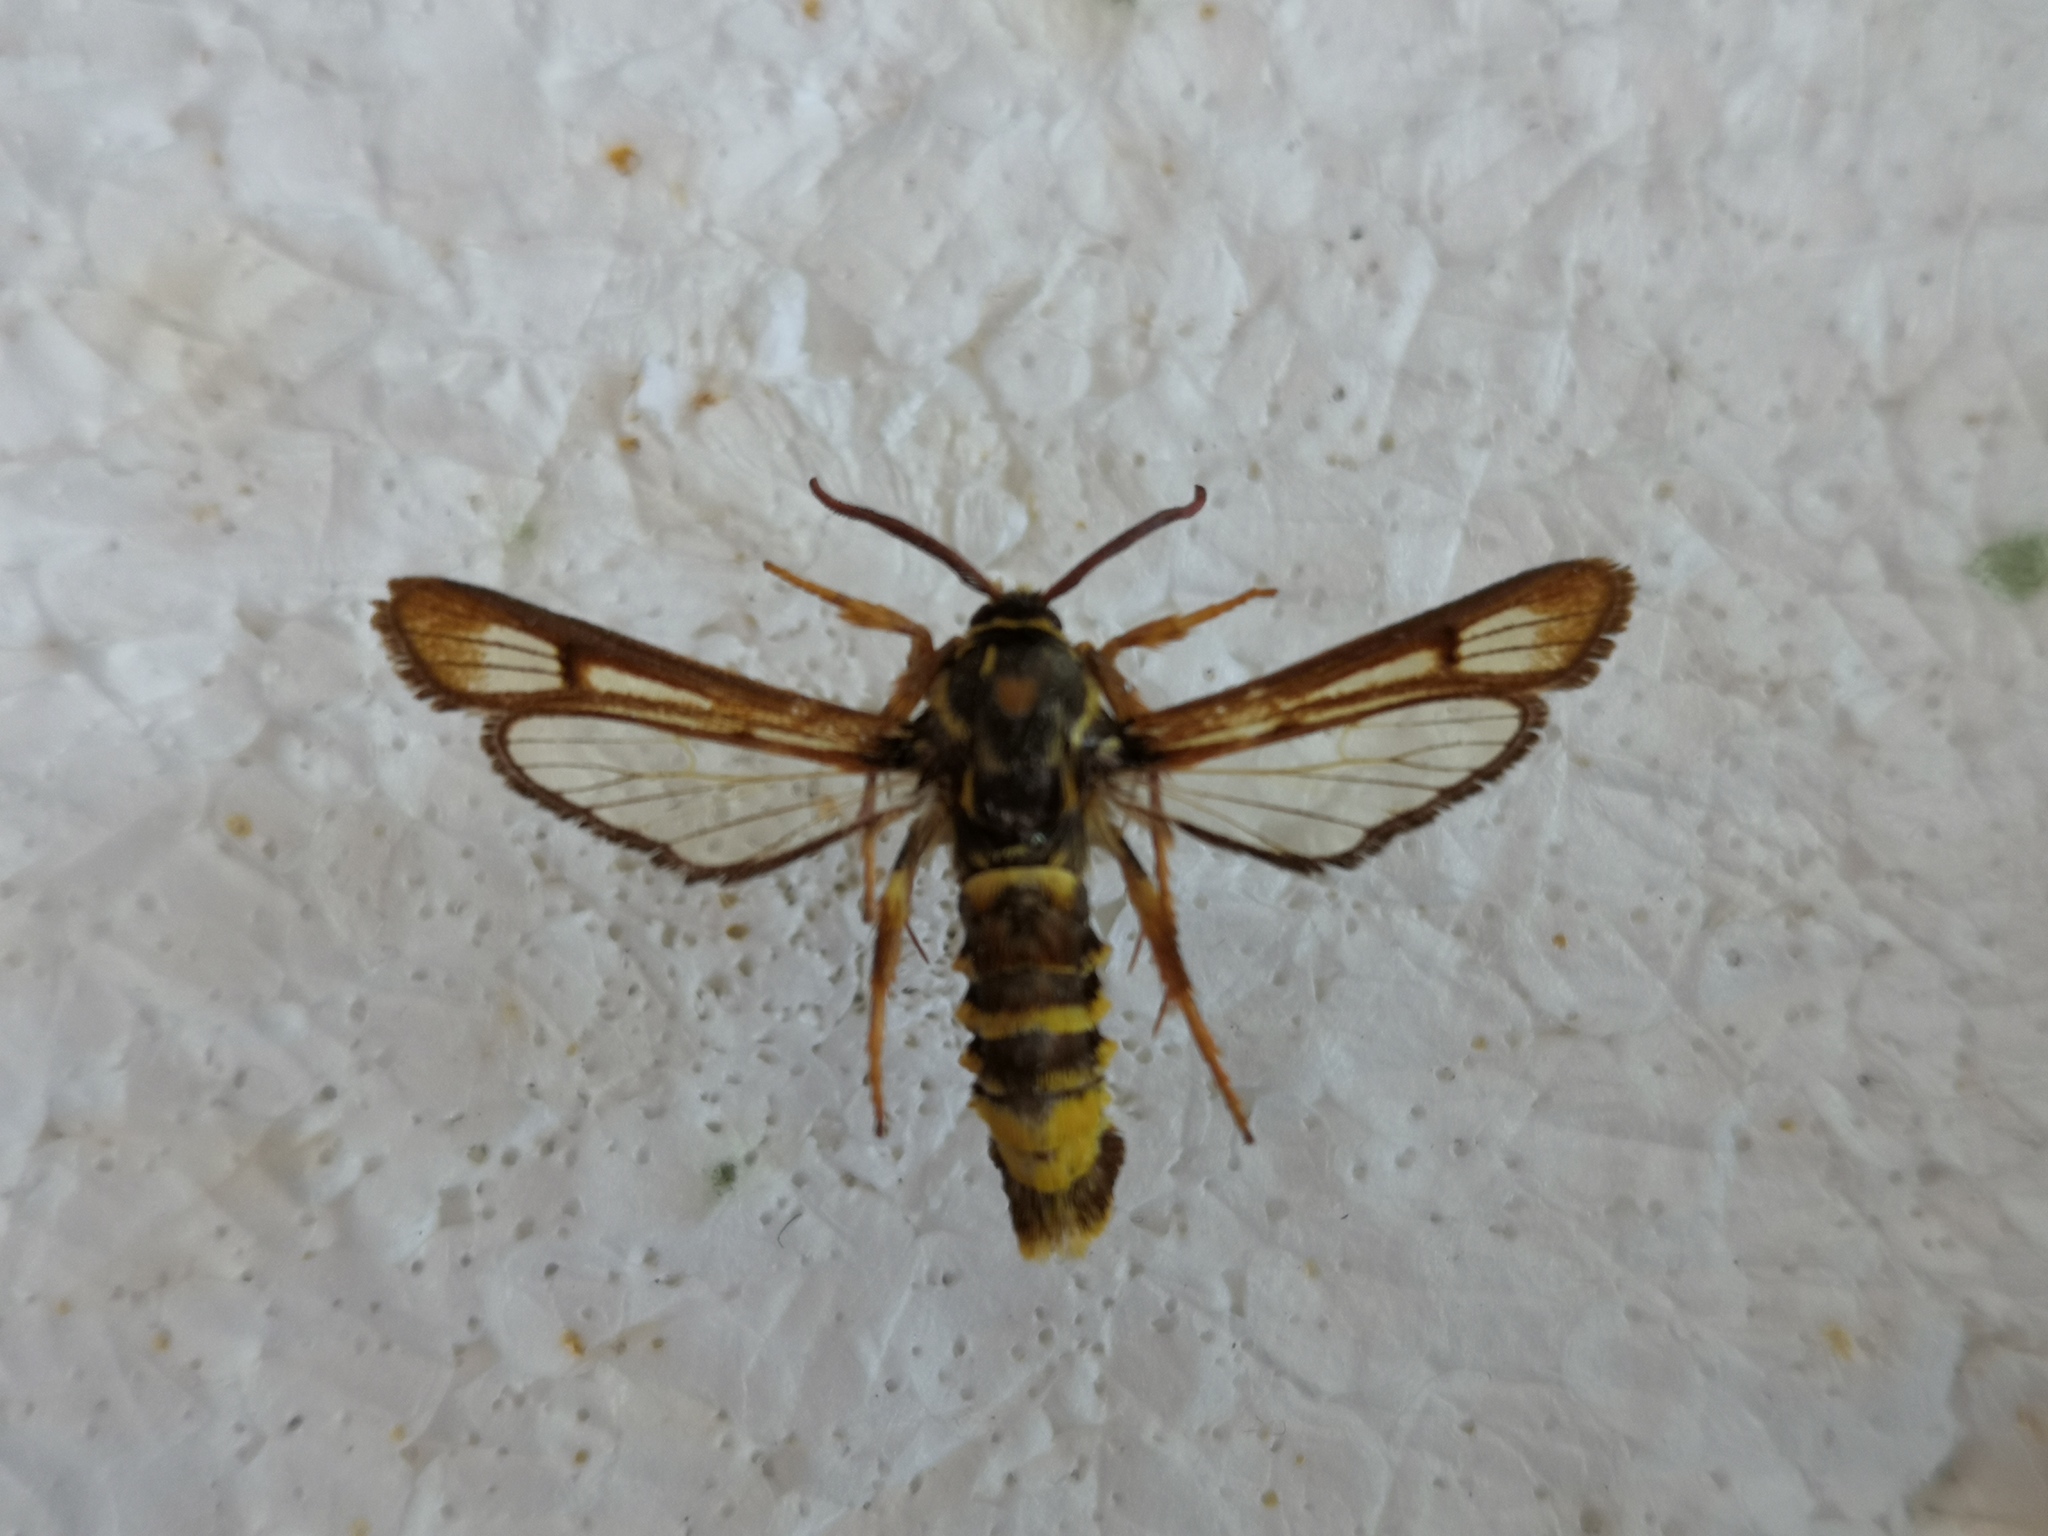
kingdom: Animalia
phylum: Arthropoda
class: Insecta
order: Lepidoptera
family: Sesiidae
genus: Pennisetia
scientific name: Pennisetia bohemica
